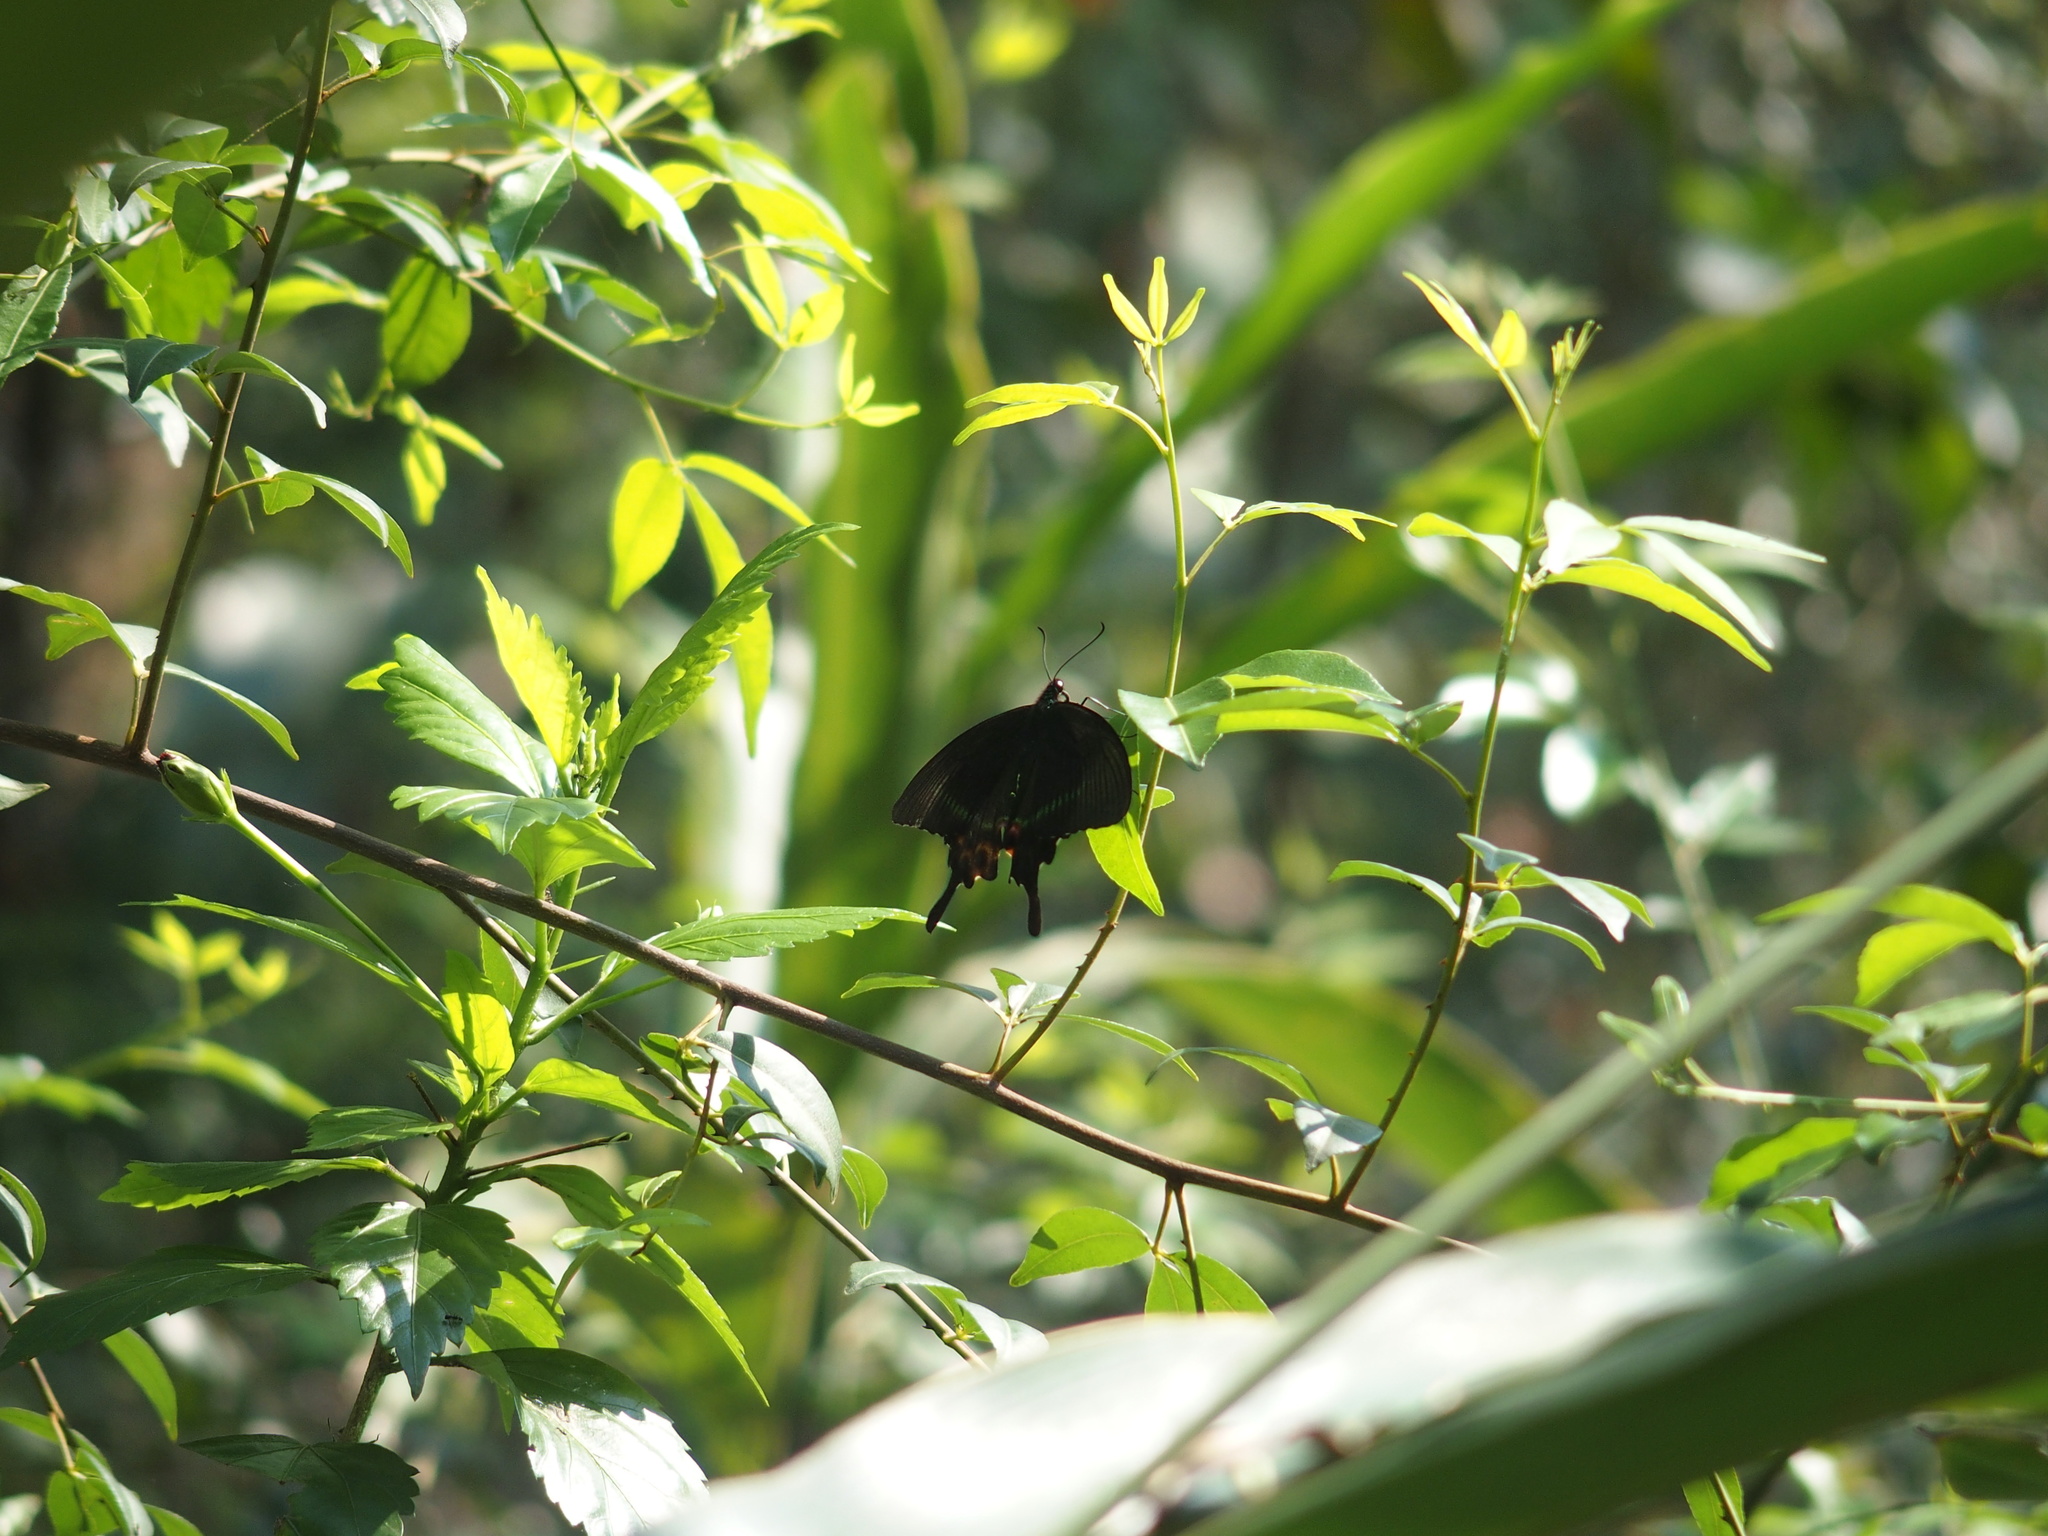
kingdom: Animalia
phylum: Arthropoda
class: Insecta
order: Lepidoptera
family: Papilionidae
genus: Papilio
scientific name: Papilio paris
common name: Paris peacock
